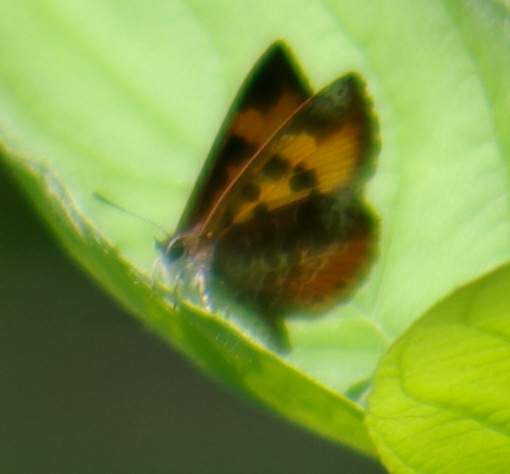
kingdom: Animalia
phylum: Arthropoda
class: Insecta
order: Lepidoptera
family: Lycaenidae
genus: Feniseca
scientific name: Feniseca tarquinius
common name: Harvester
